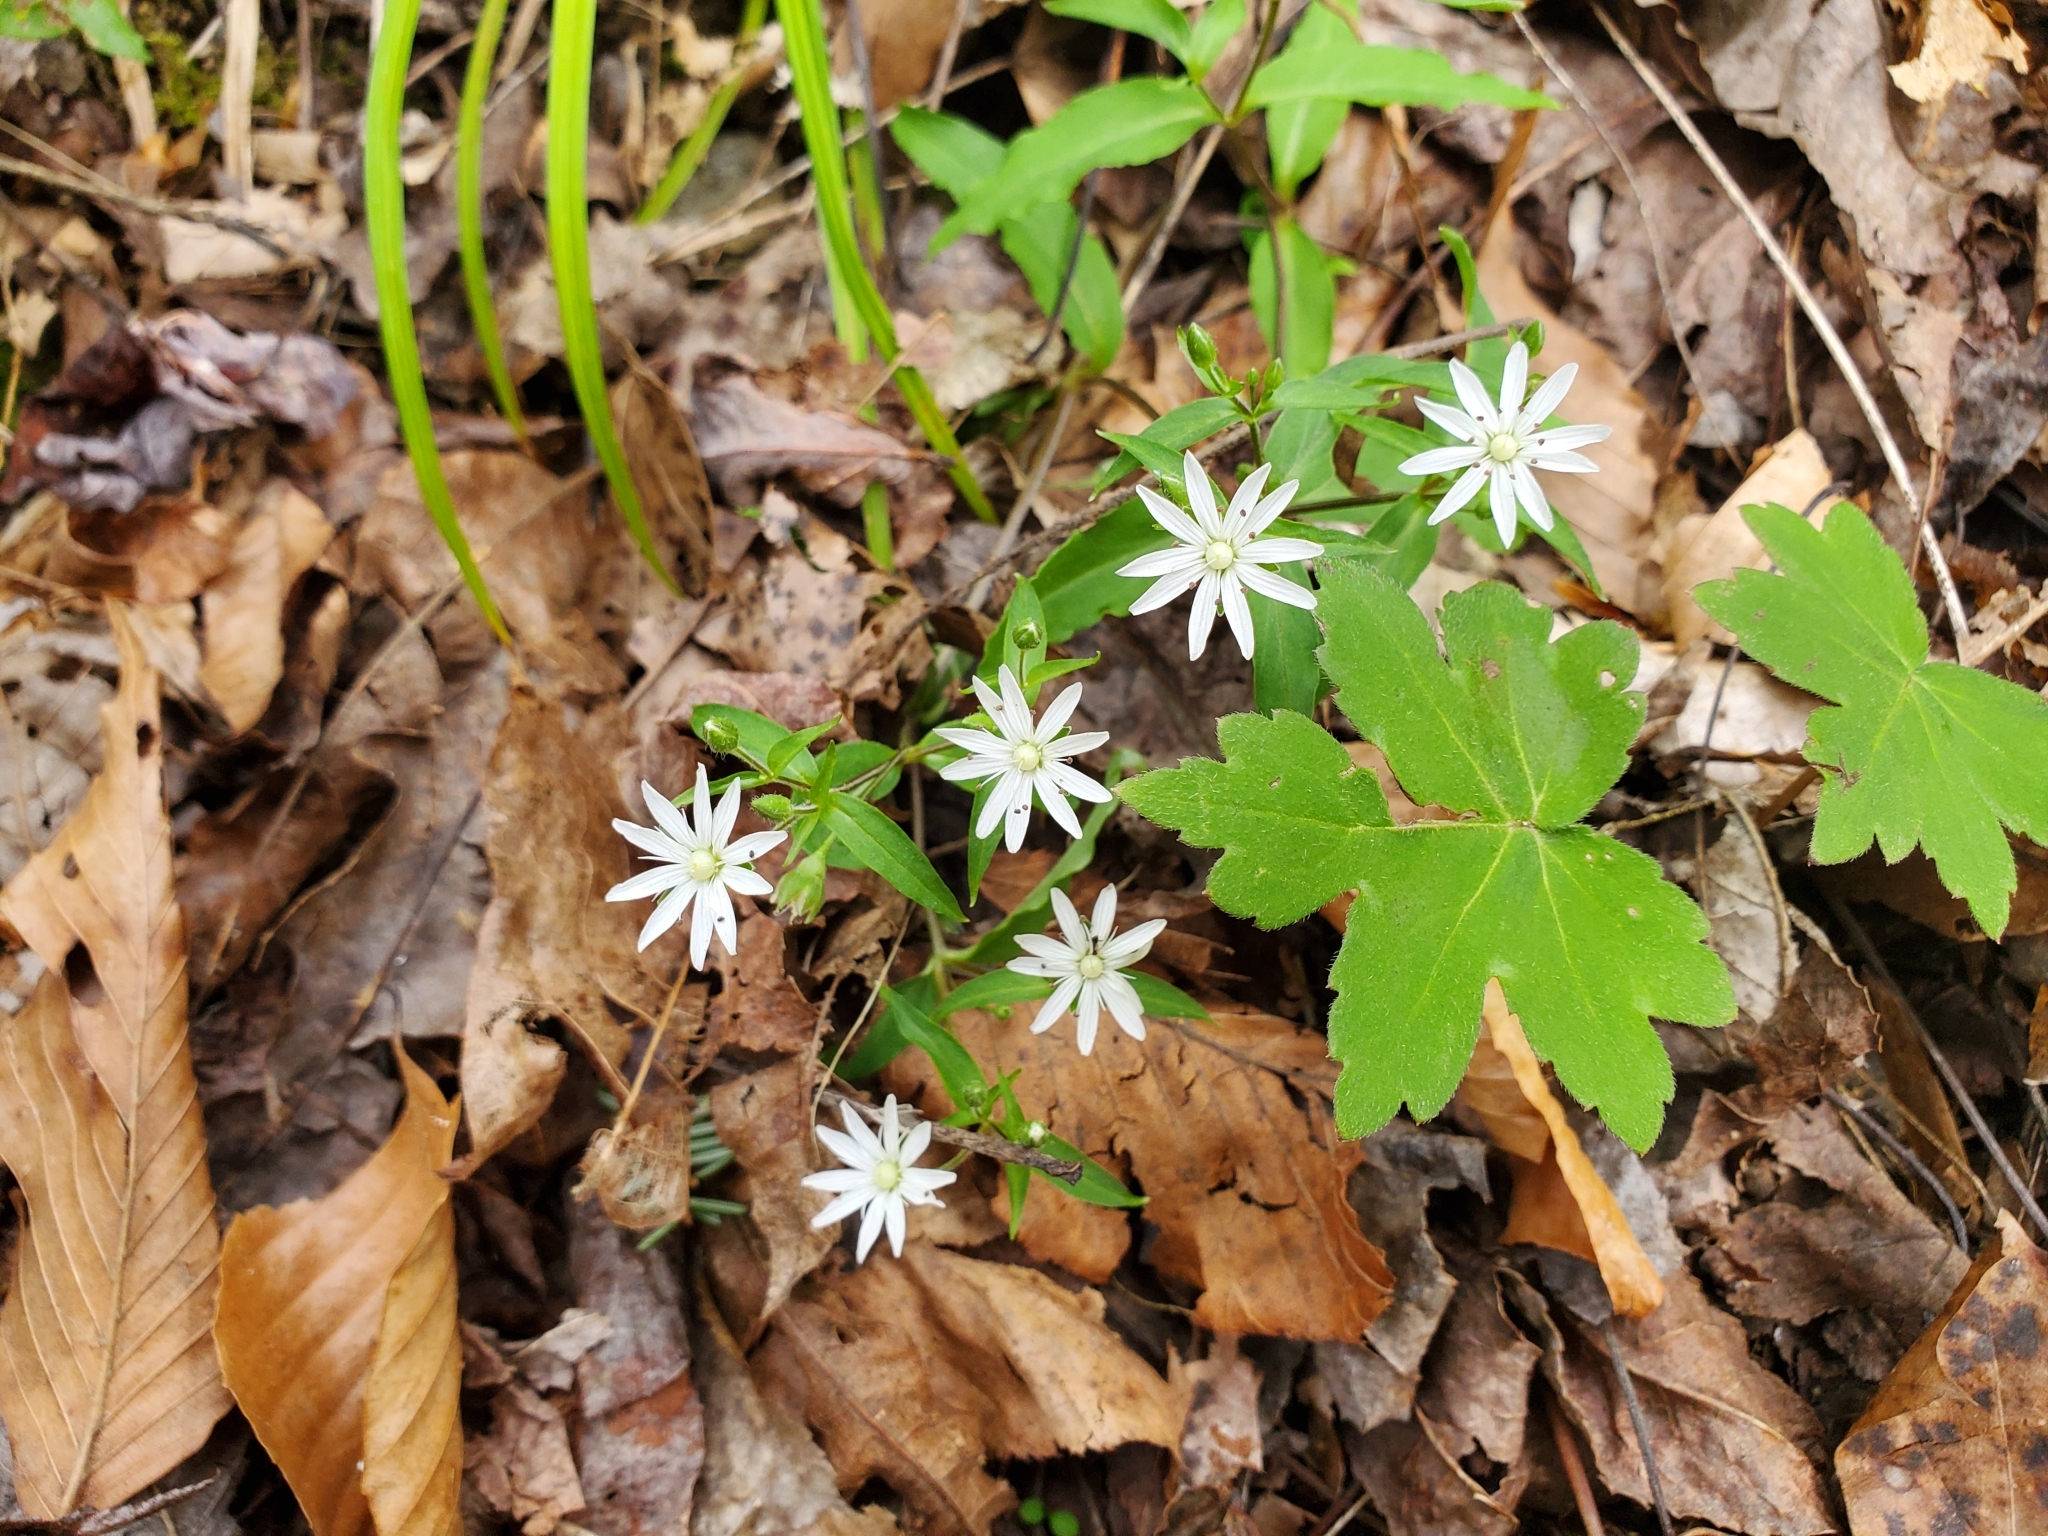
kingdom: Plantae
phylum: Tracheophyta
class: Magnoliopsida
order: Caryophyllales
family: Caryophyllaceae
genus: Stellaria
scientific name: Stellaria pubera
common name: Star chickweed
